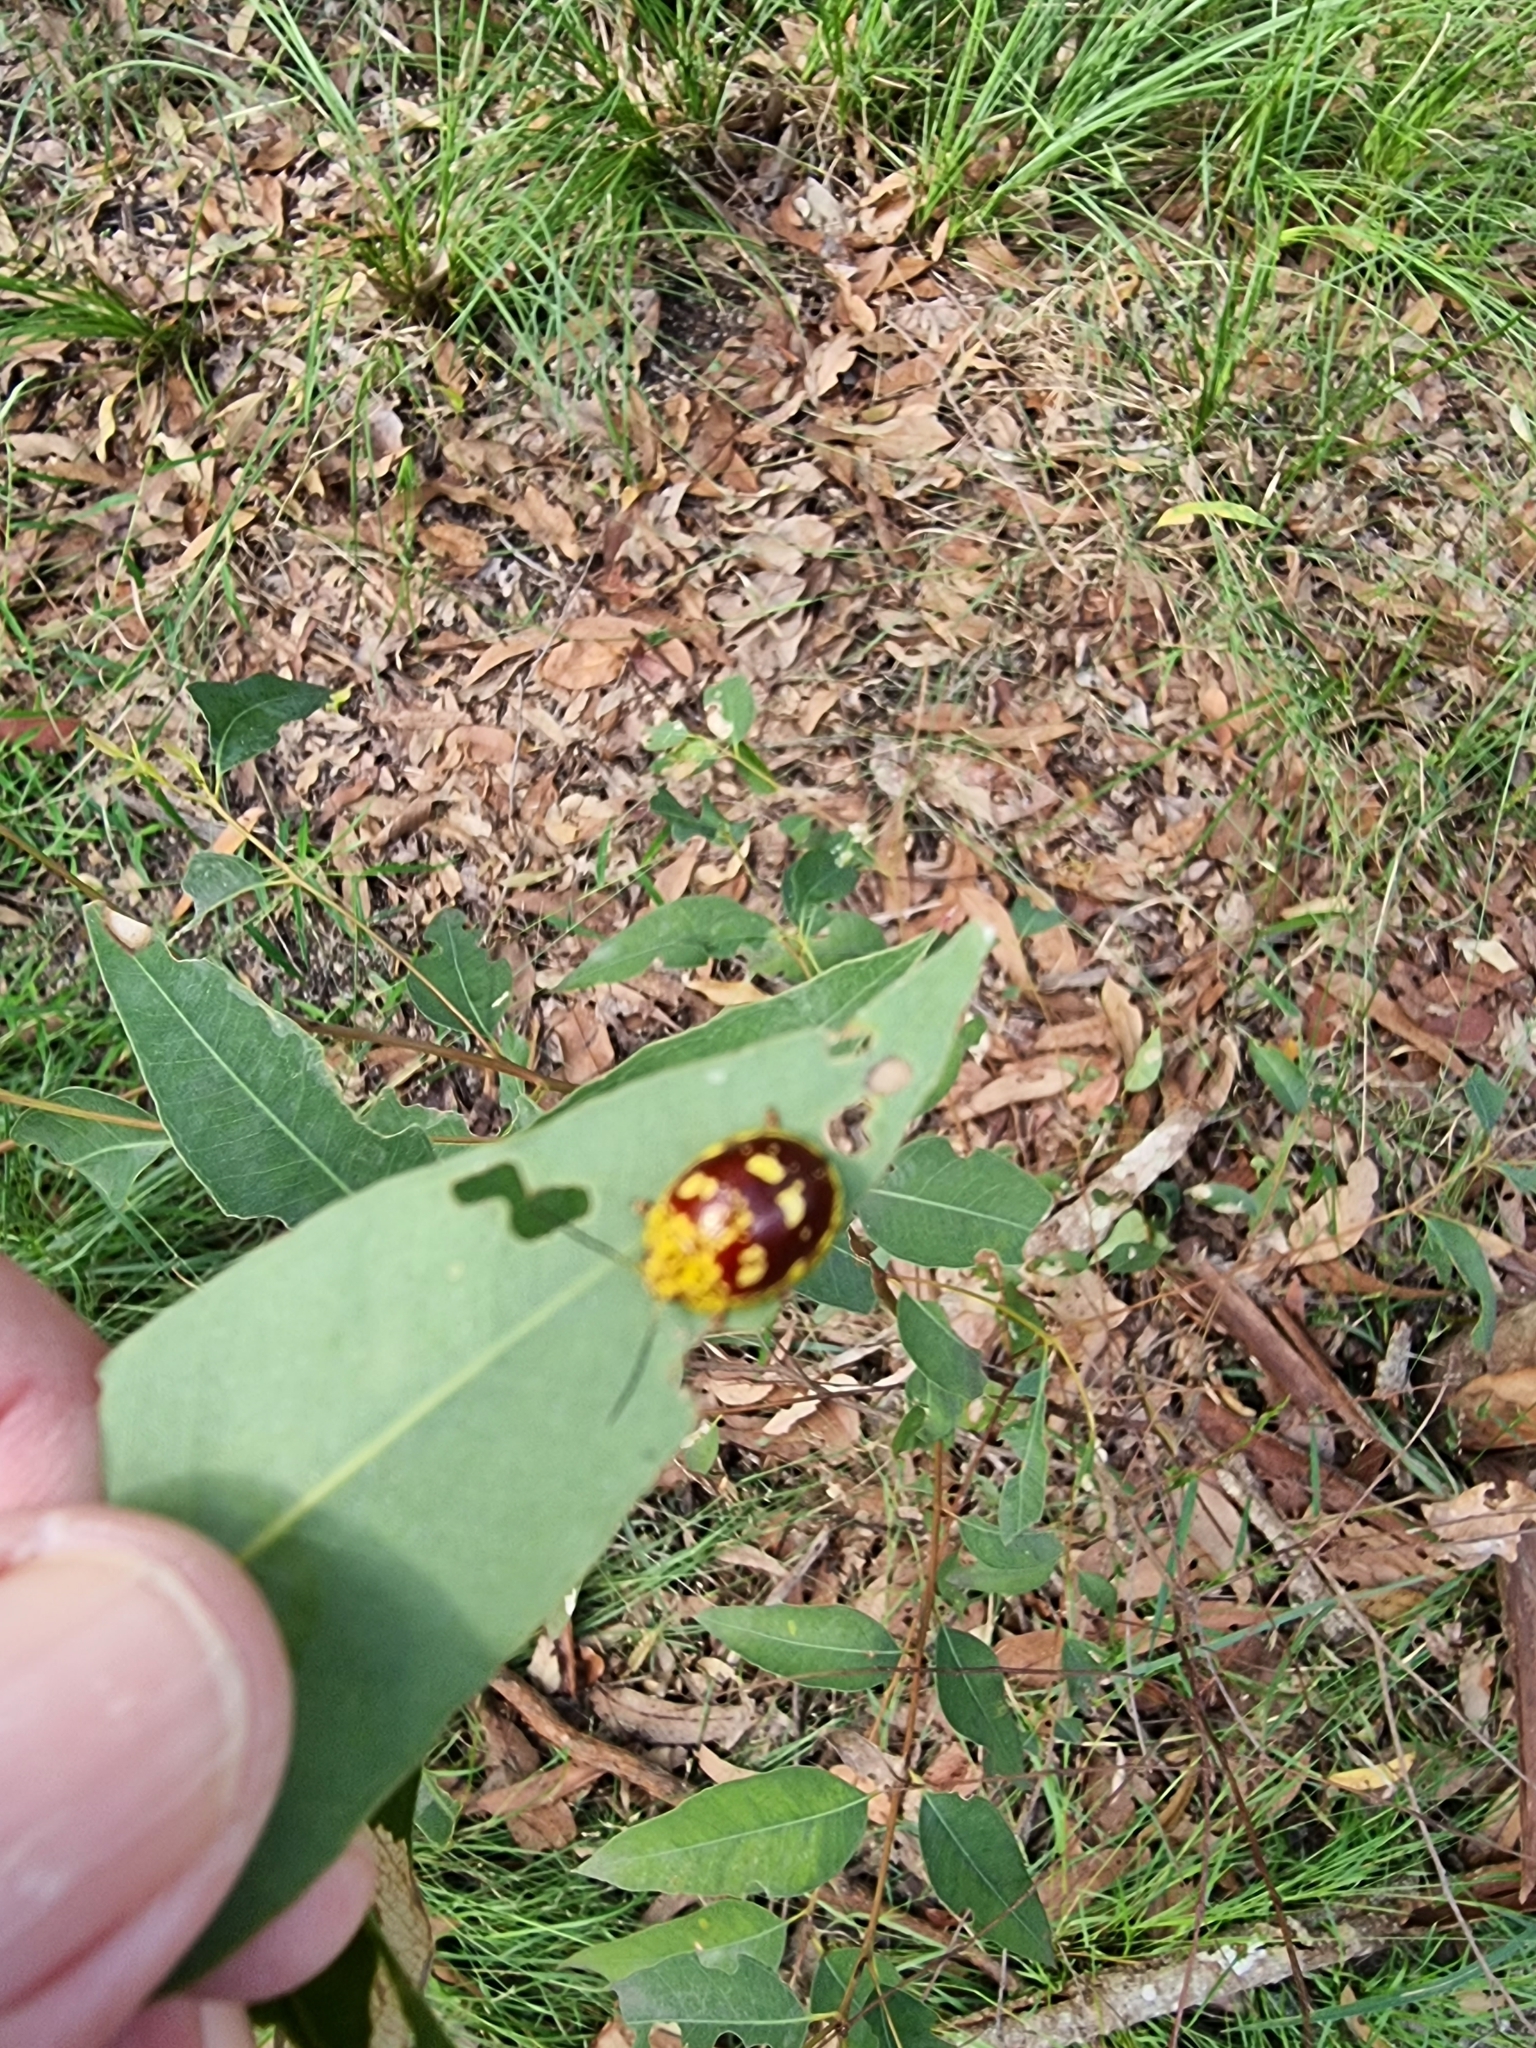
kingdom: Animalia
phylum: Arthropoda
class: Insecta
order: Coleoptera
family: Chrysomelidae
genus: Paropsis
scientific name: Paropsis maculata
